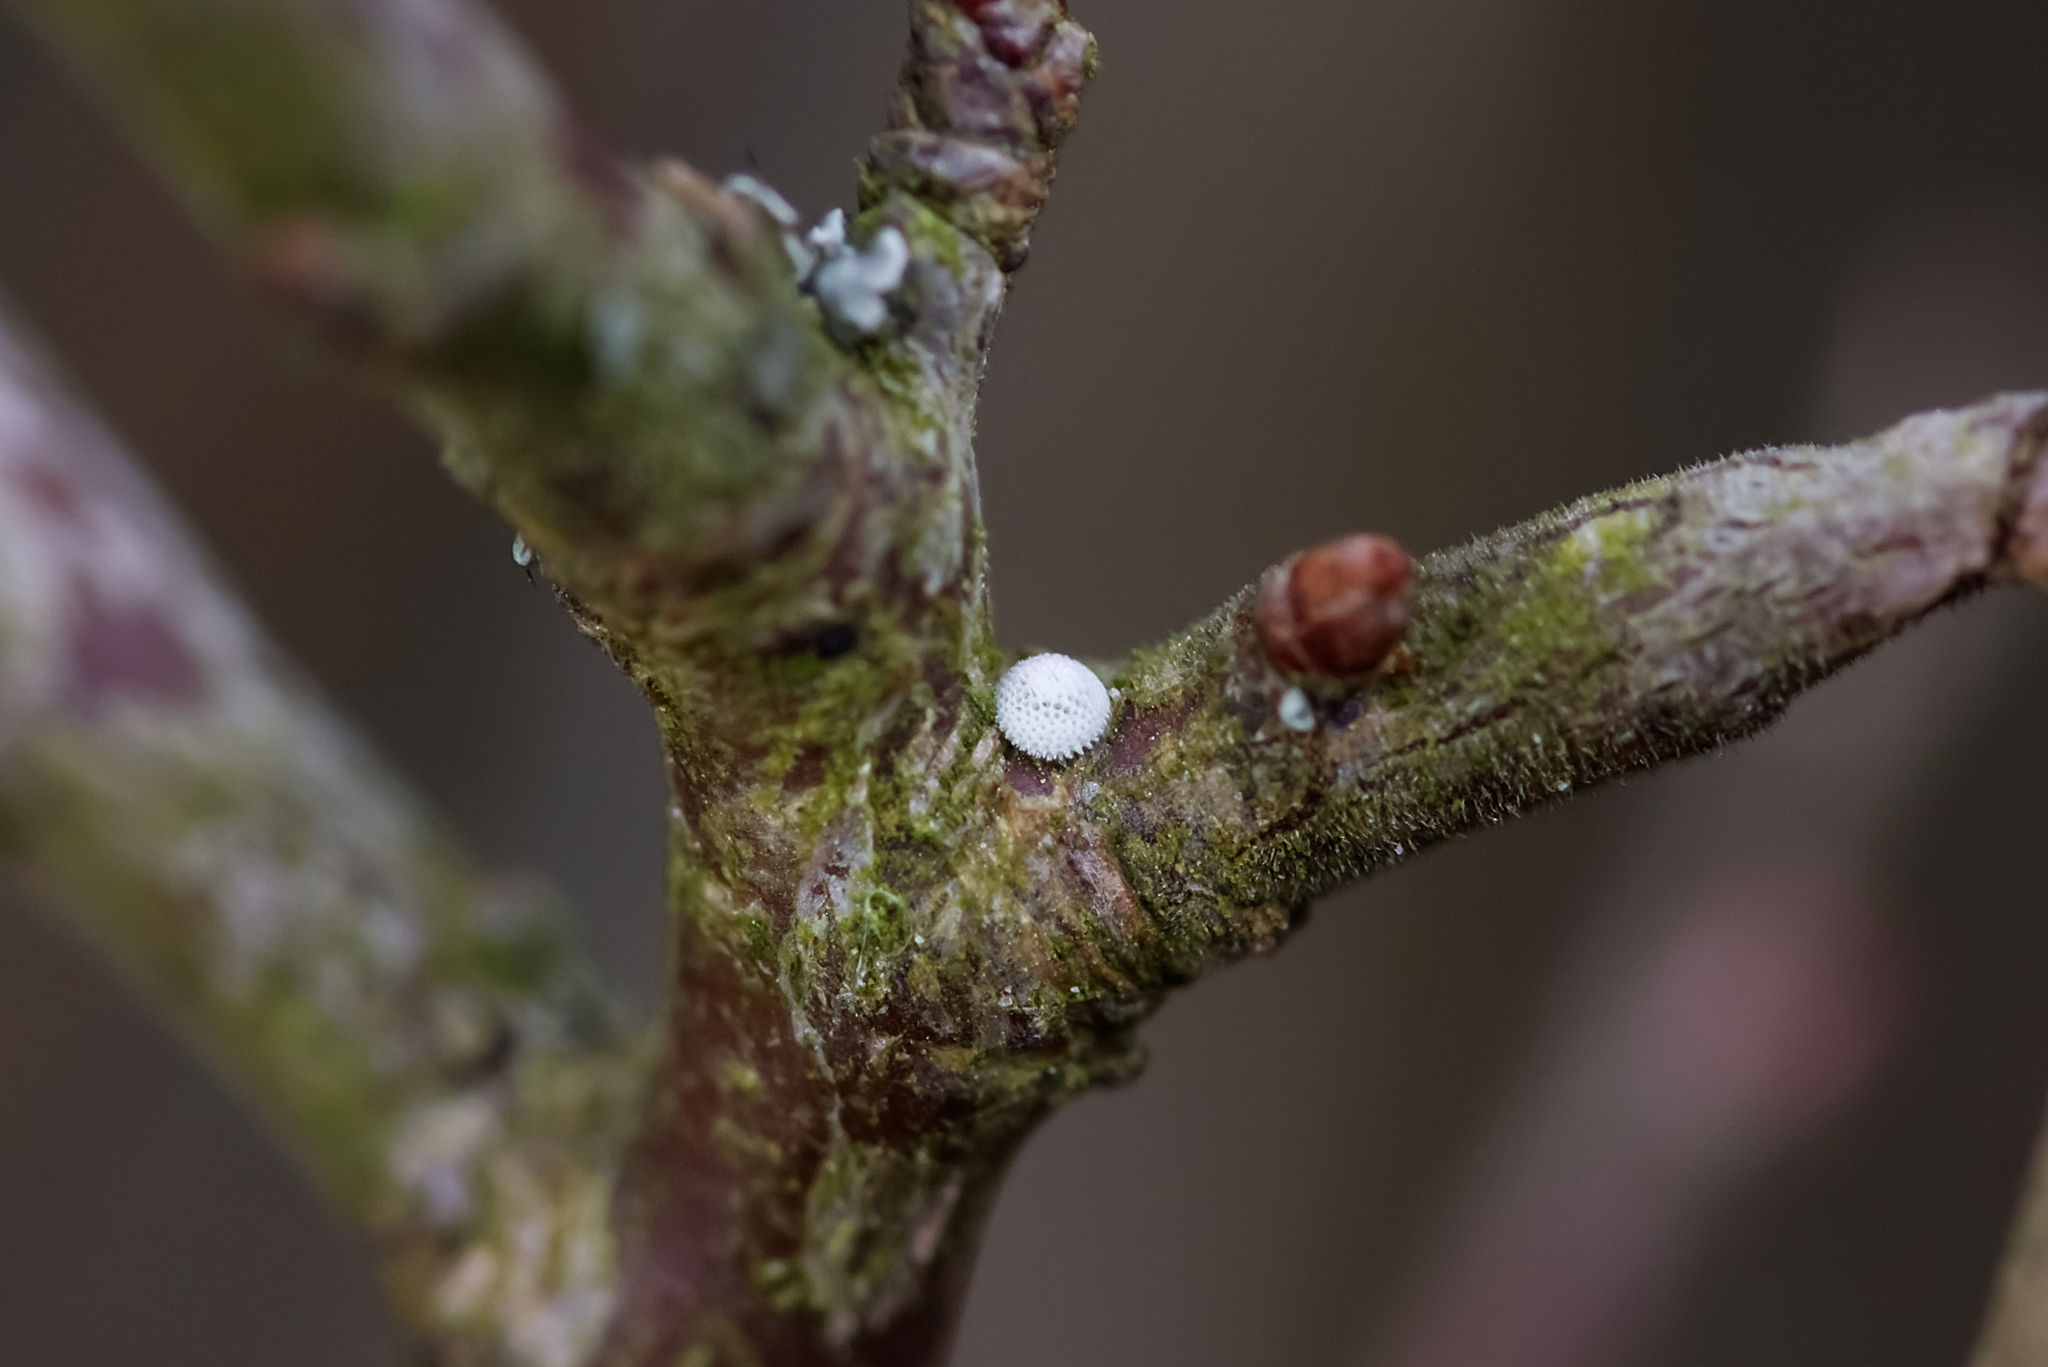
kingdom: Animalia
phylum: Arthropoda
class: Insecta
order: Lepidoptera
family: Lycaenidae
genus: Thecla
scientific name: Thecla betulae
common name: Brown hairstreak
